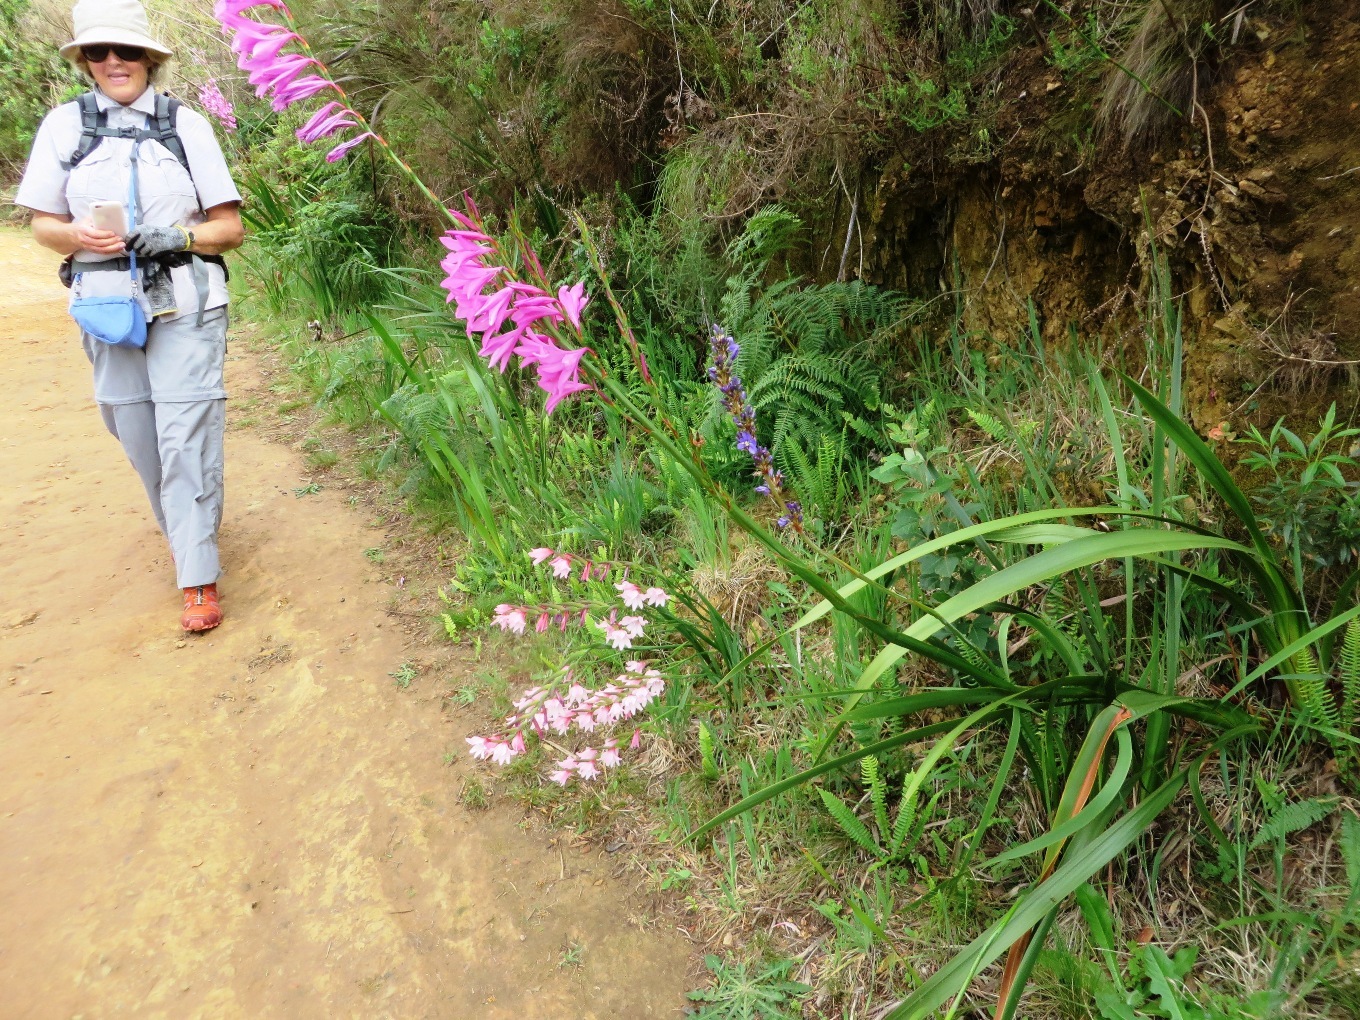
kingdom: Plantae
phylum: Tracheophyta
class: Liliopsida
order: Asparagales
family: Iridaceae
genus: Gladiolus
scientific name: Gladiolus carneus
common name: Painted-lady
